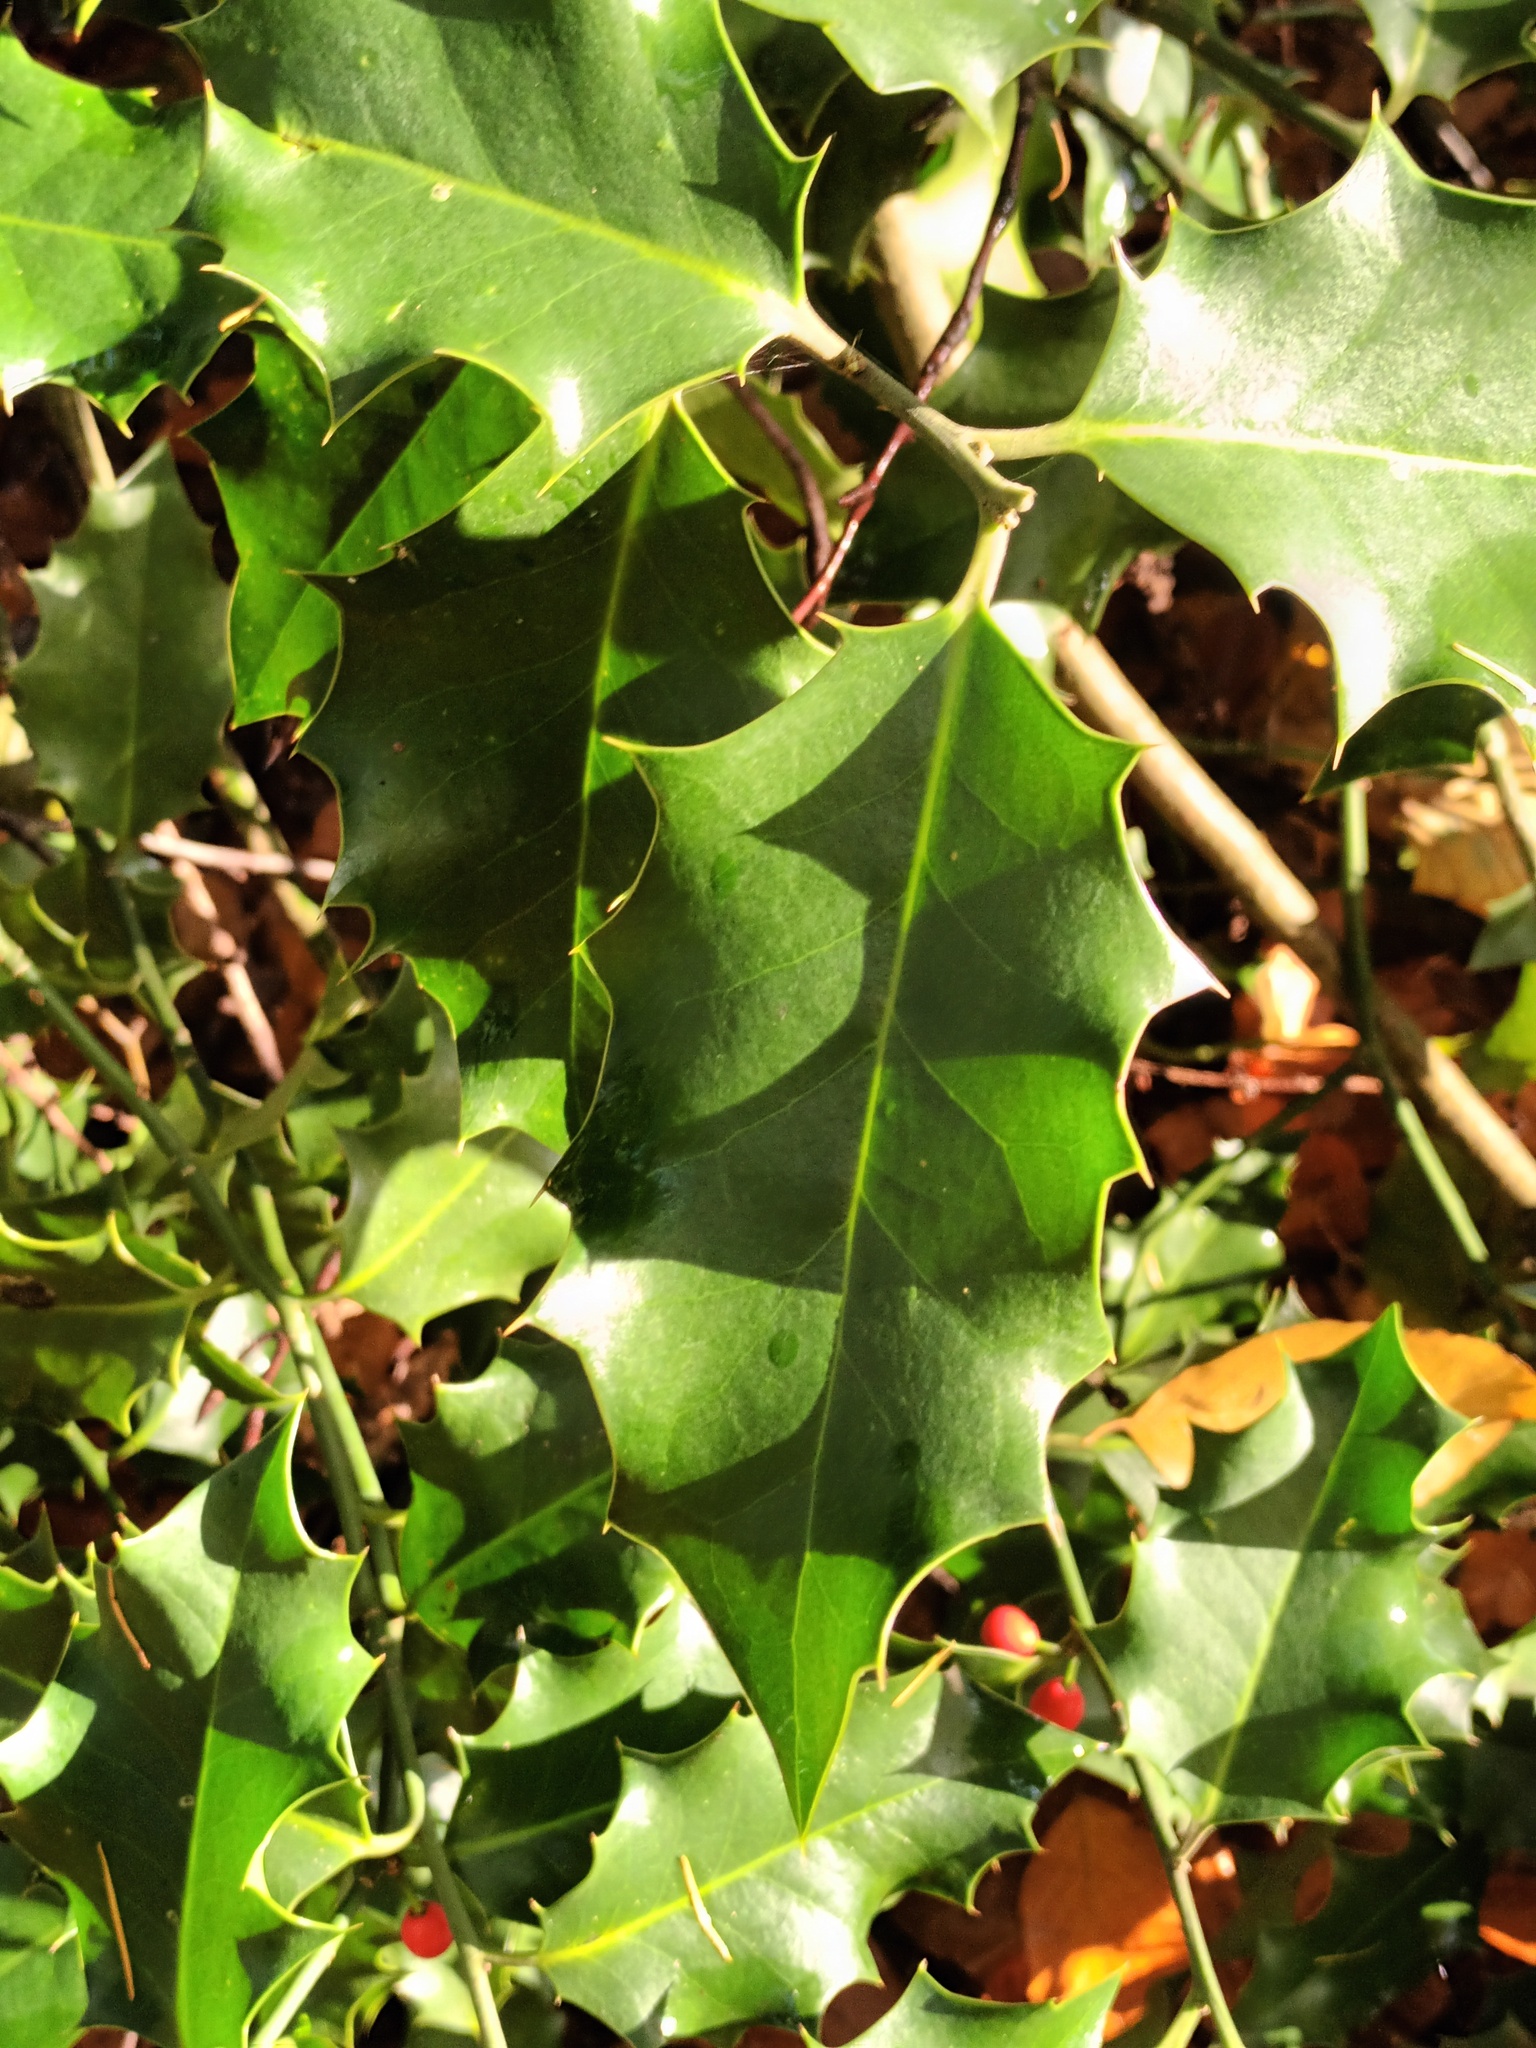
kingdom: Plantae
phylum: Tracheophyta
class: Magnoliopsida
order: Aquifoliales
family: Aquifoliaceae
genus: Ilex
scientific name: Ilex aquifolium
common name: English holly
